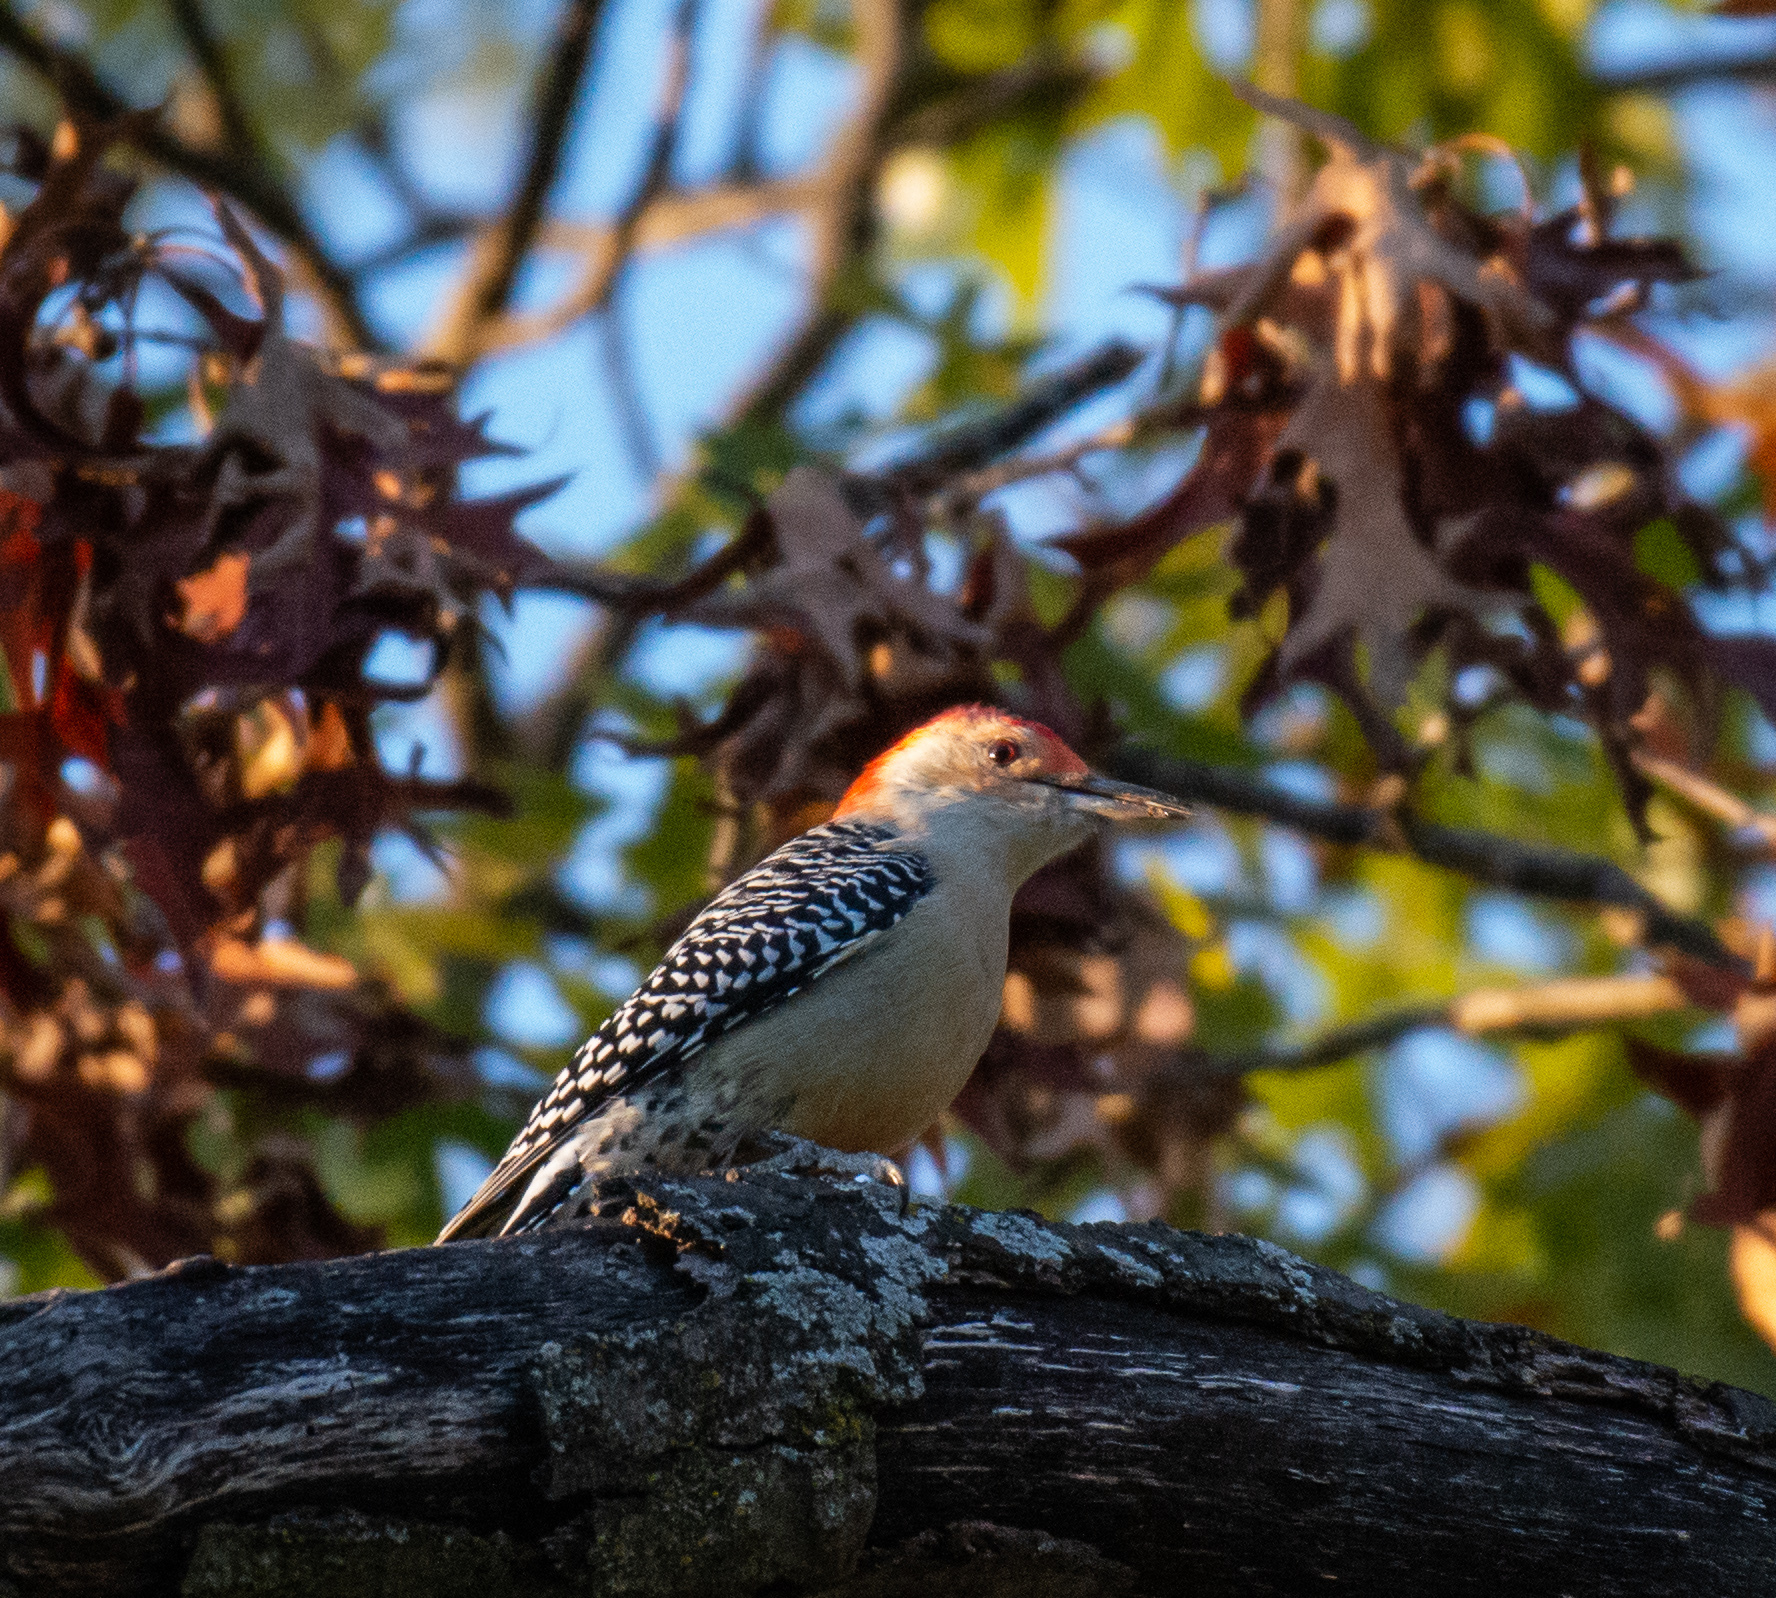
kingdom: Animalia
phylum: Chordata
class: Aves
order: Piciformes
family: Picidae
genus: Melanerpes
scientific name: Melanerpes carolinus
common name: Red-bellied woodpecker
